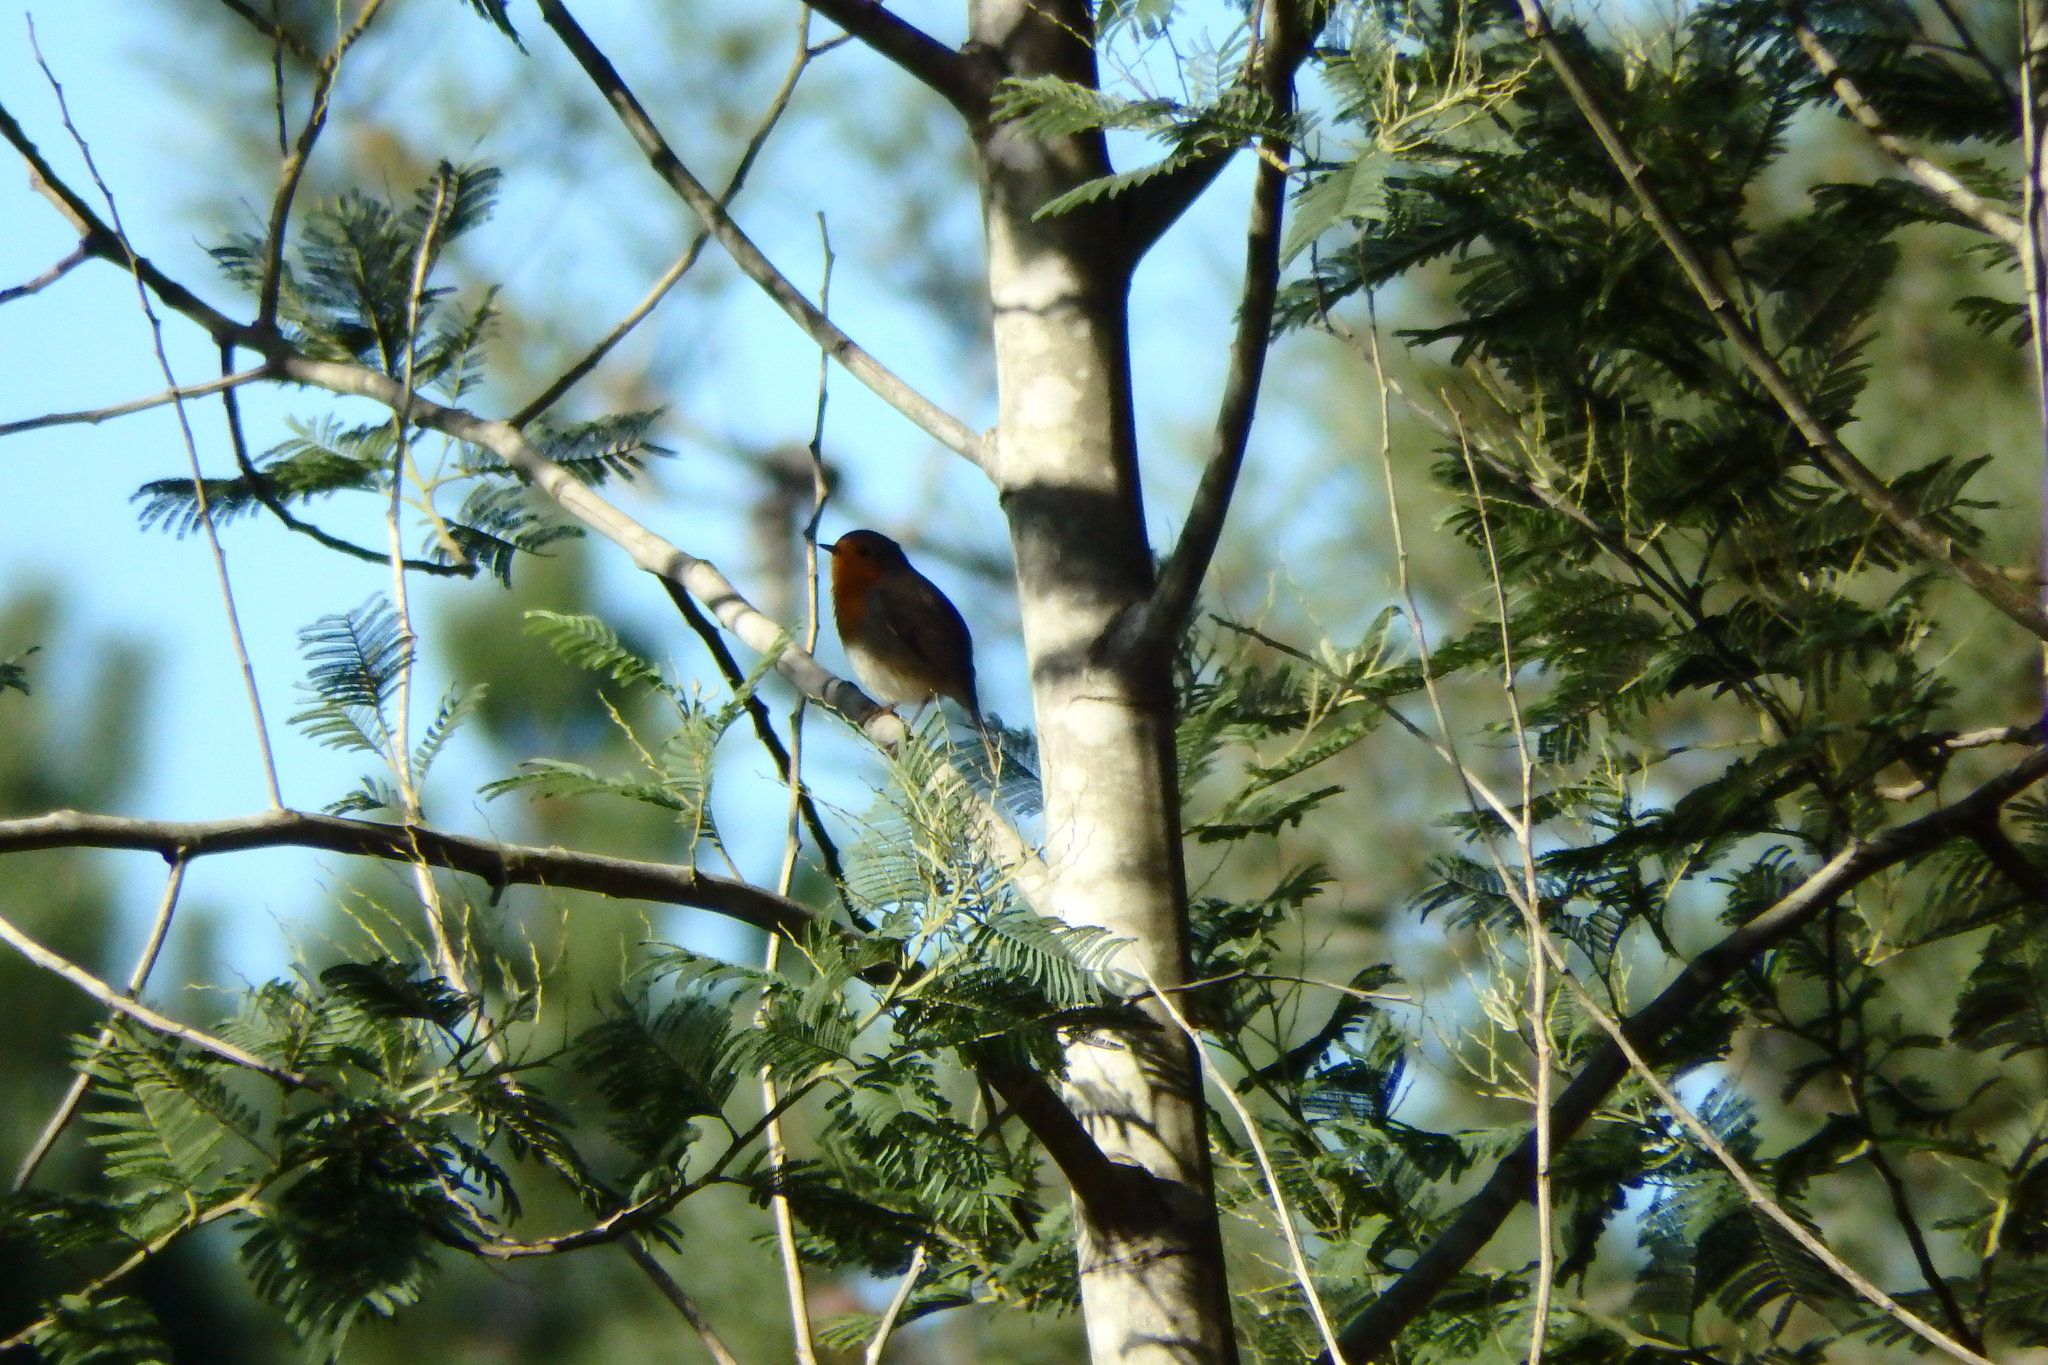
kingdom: Animalia
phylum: Chordata
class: Aves
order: Passeriformes
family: Muscicapidae
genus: Erithacus
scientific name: Erithacus rubecula
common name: European robin
